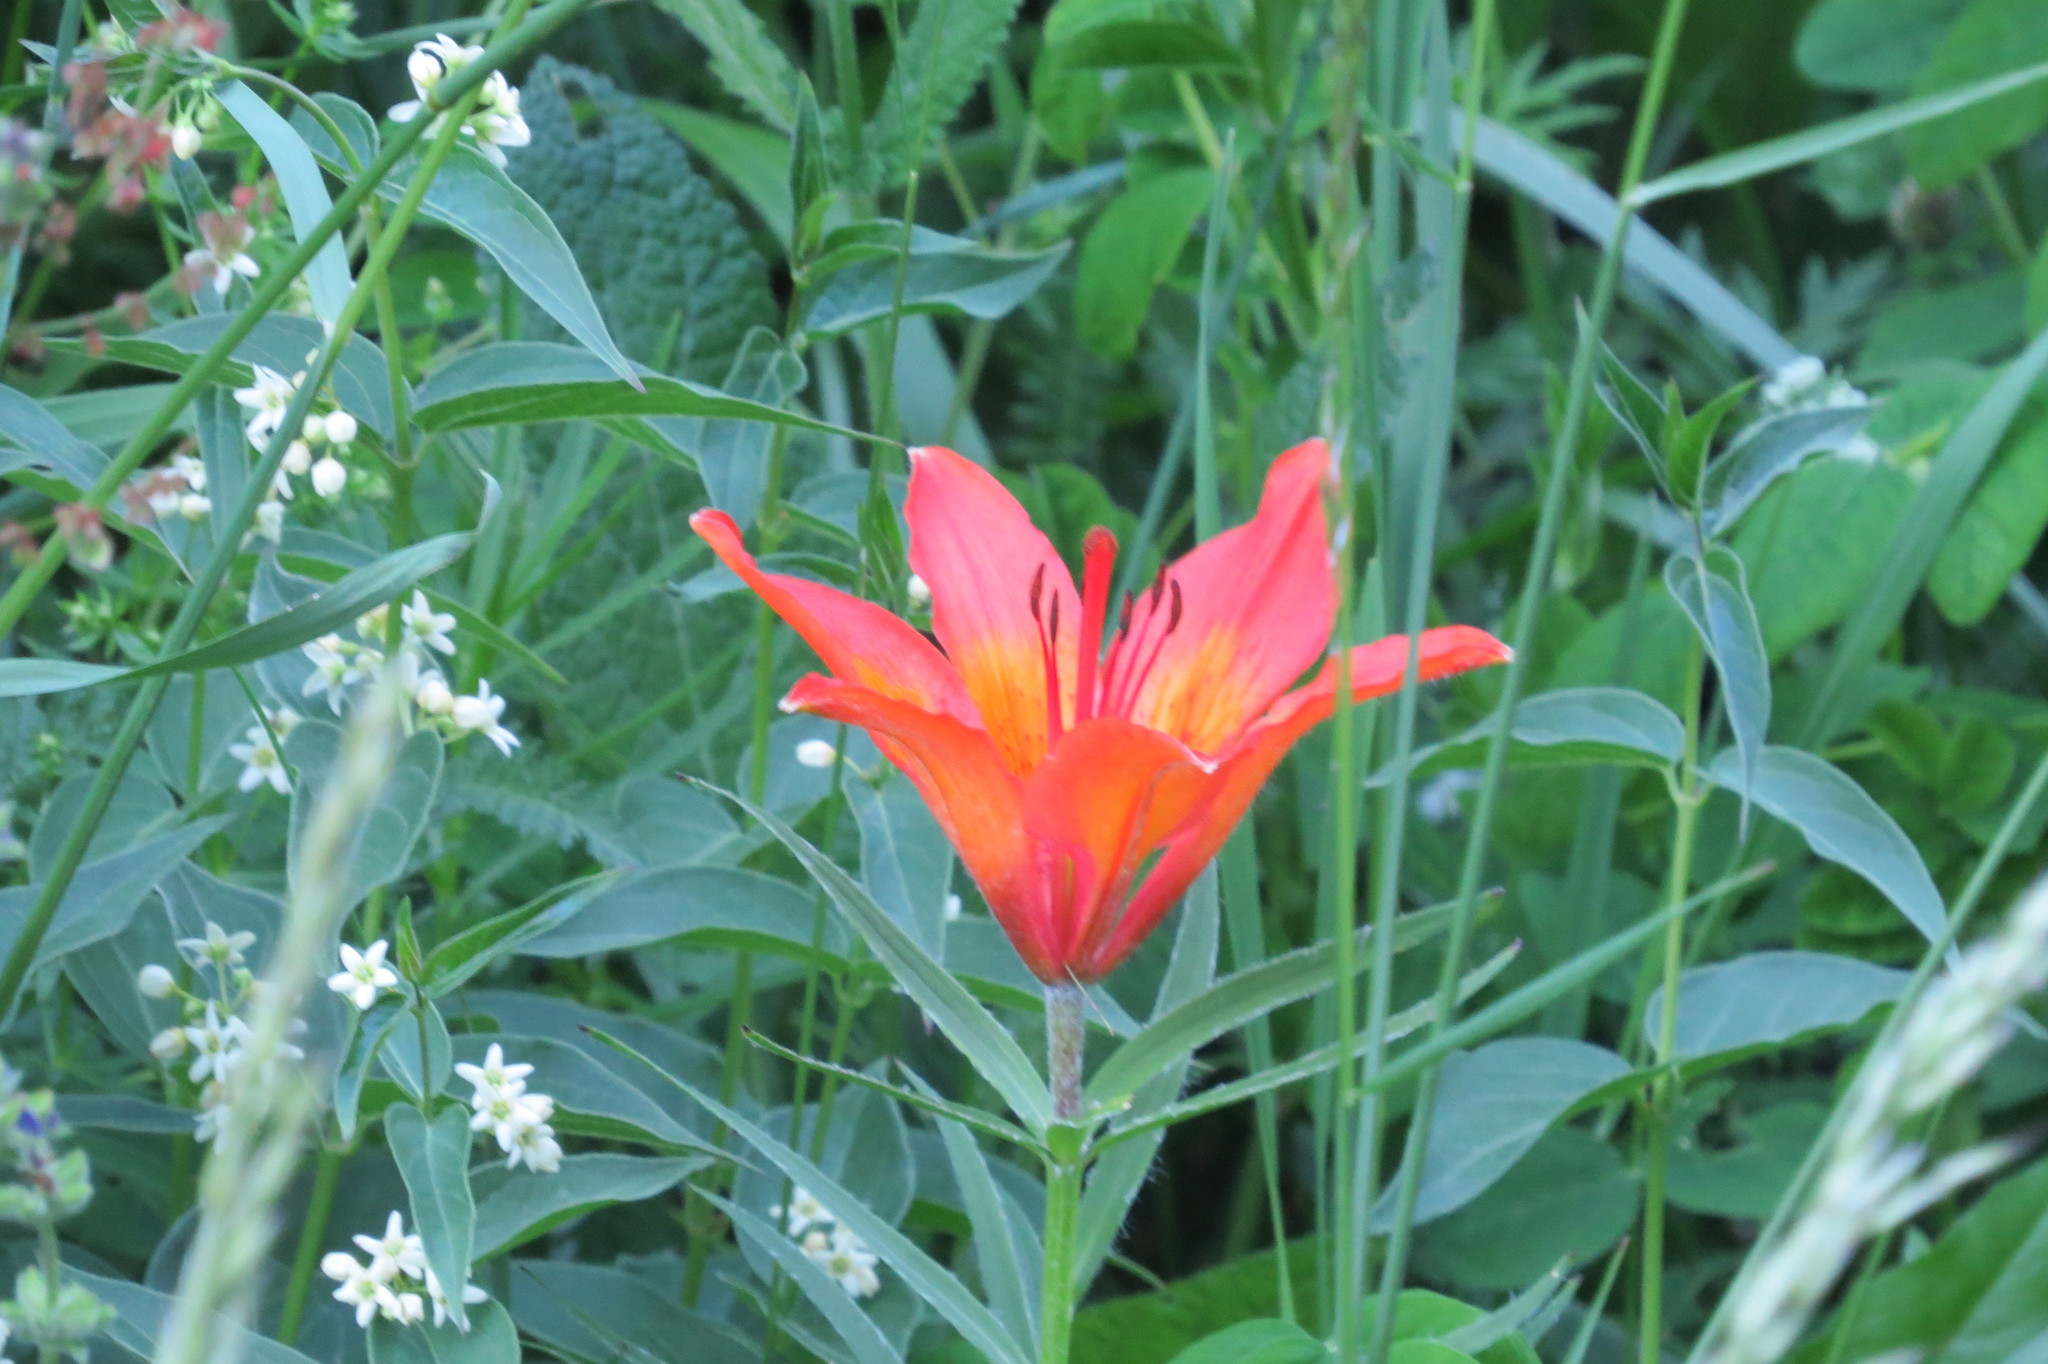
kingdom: Plantae
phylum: Tracheophyta
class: Liliopsida
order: Liliales
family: Liliaceae
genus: Lilium
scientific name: Lilium bulbiferum
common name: Orange lily
